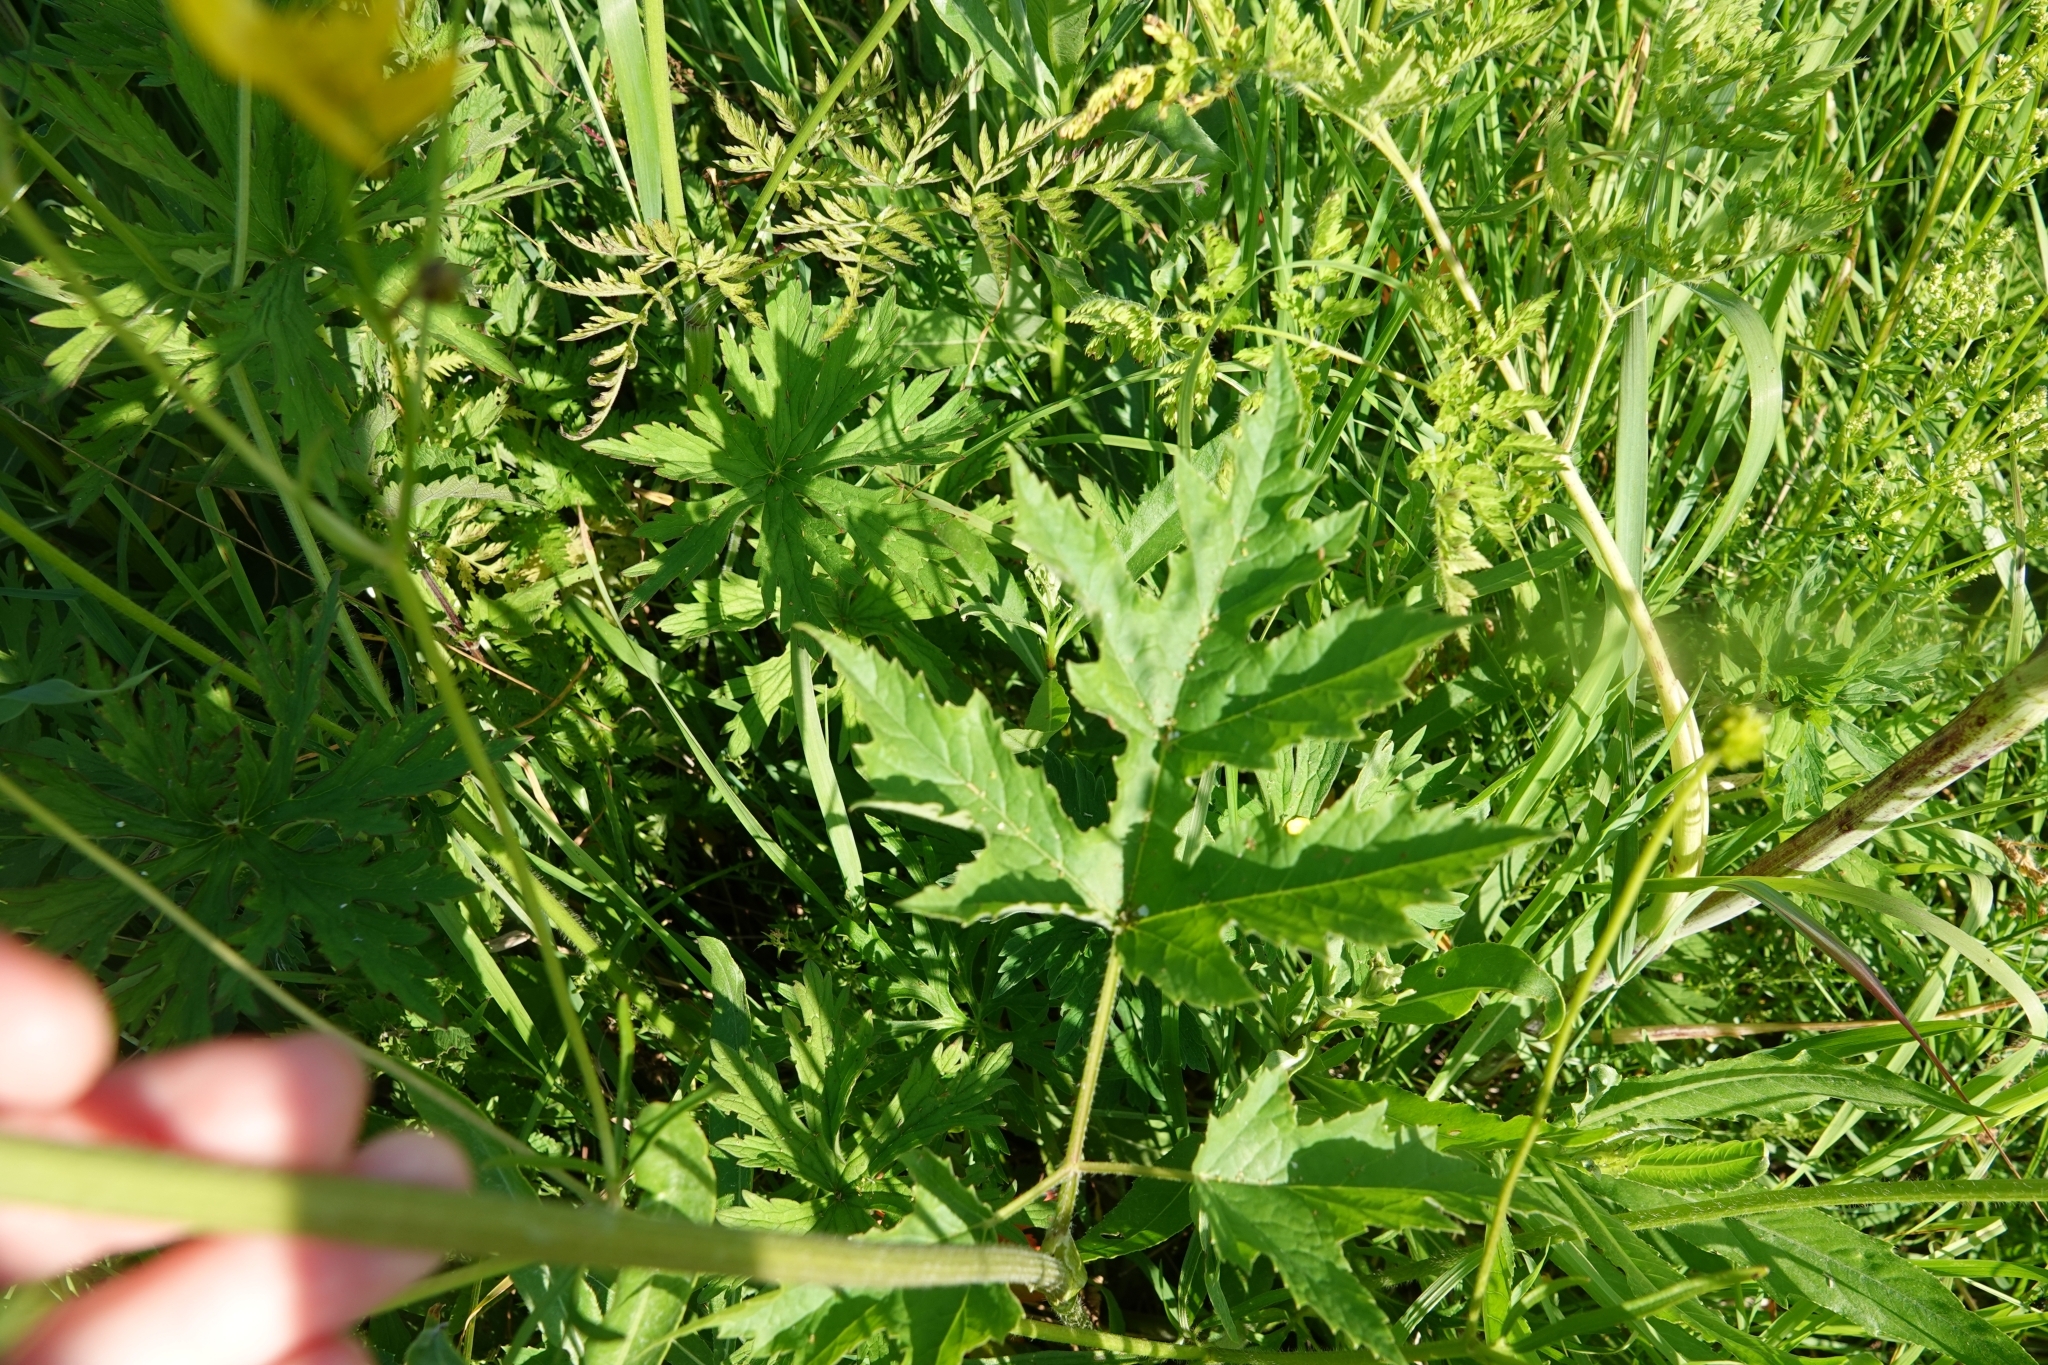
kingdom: Plantae
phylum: Tracheophyta
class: Magnoliopsida
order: Apiales
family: Apiaceae
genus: Heracleum
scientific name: Heracleum sphondylium
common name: Hogweed
